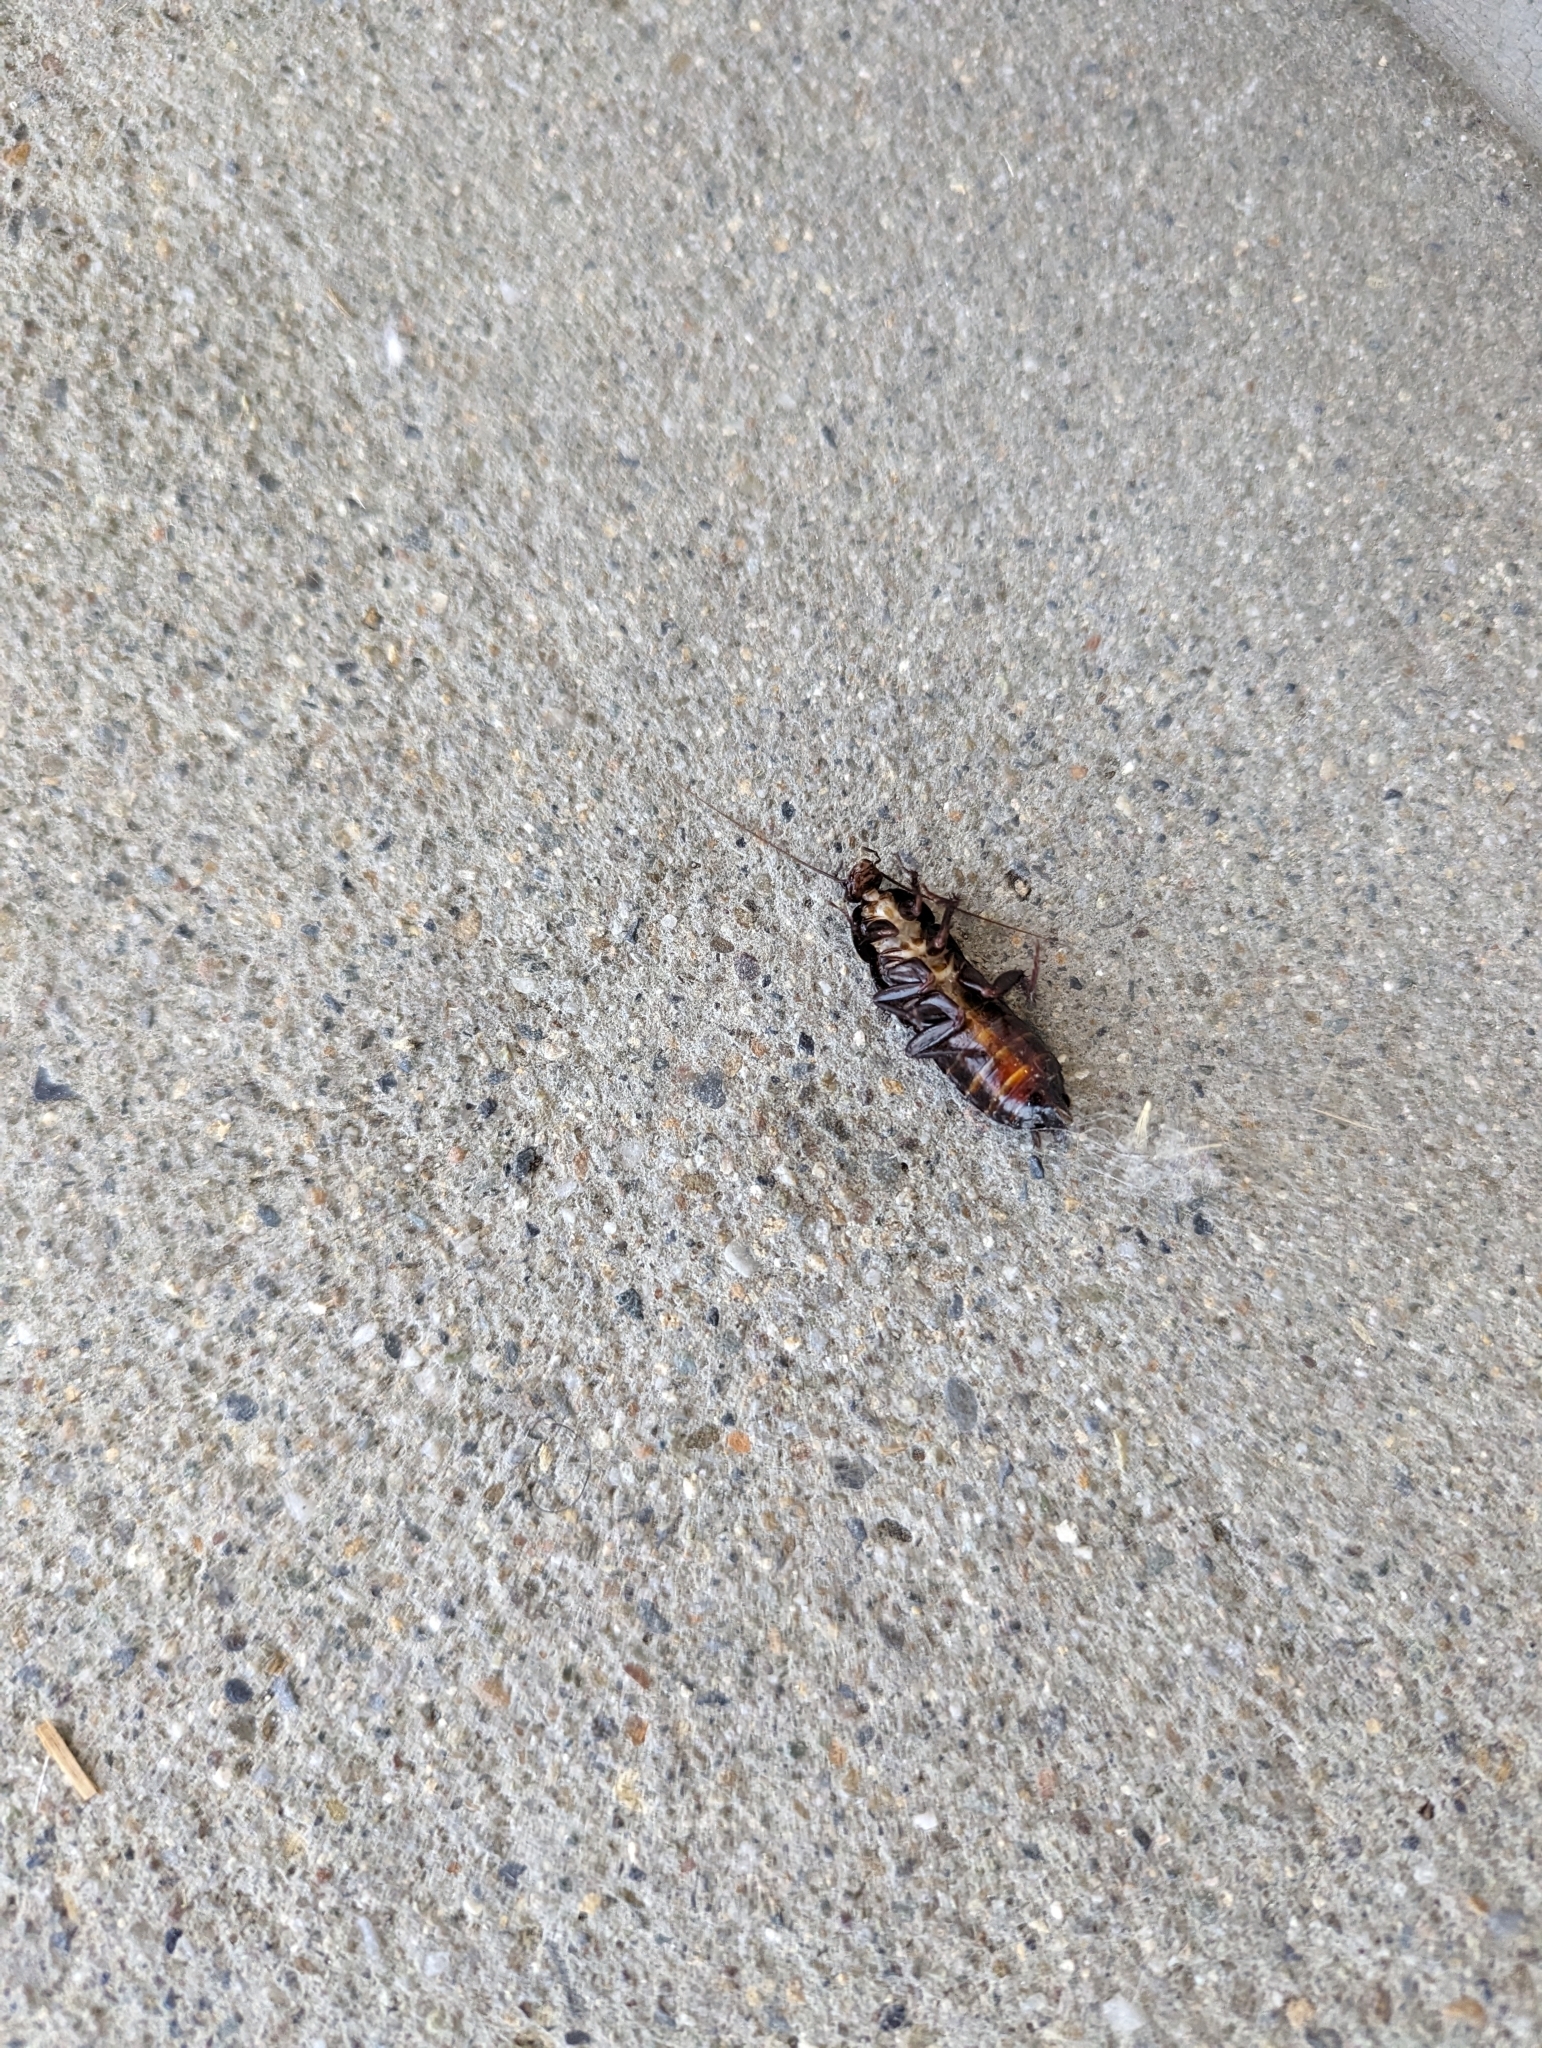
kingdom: Animalia
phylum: Arthropoda
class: Insecta
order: Blattodea
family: Blattidae
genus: Blatta
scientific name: Blatta orientalis
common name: Oriental cockroach
